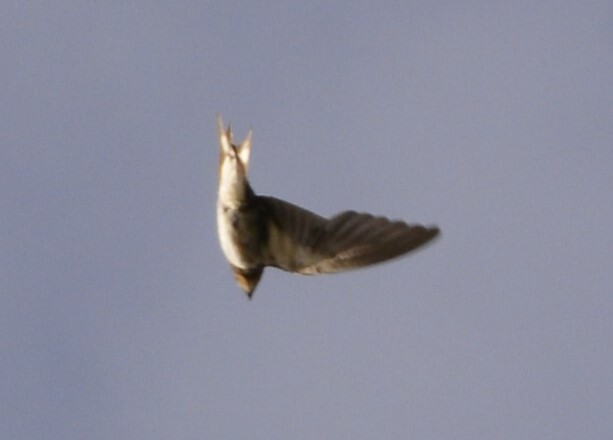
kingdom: Animalia
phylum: Chordata
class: Aves
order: Passeriformes
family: Hirundinidae
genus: Hirundo
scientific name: Hirundo rustica
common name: Barn swallow
